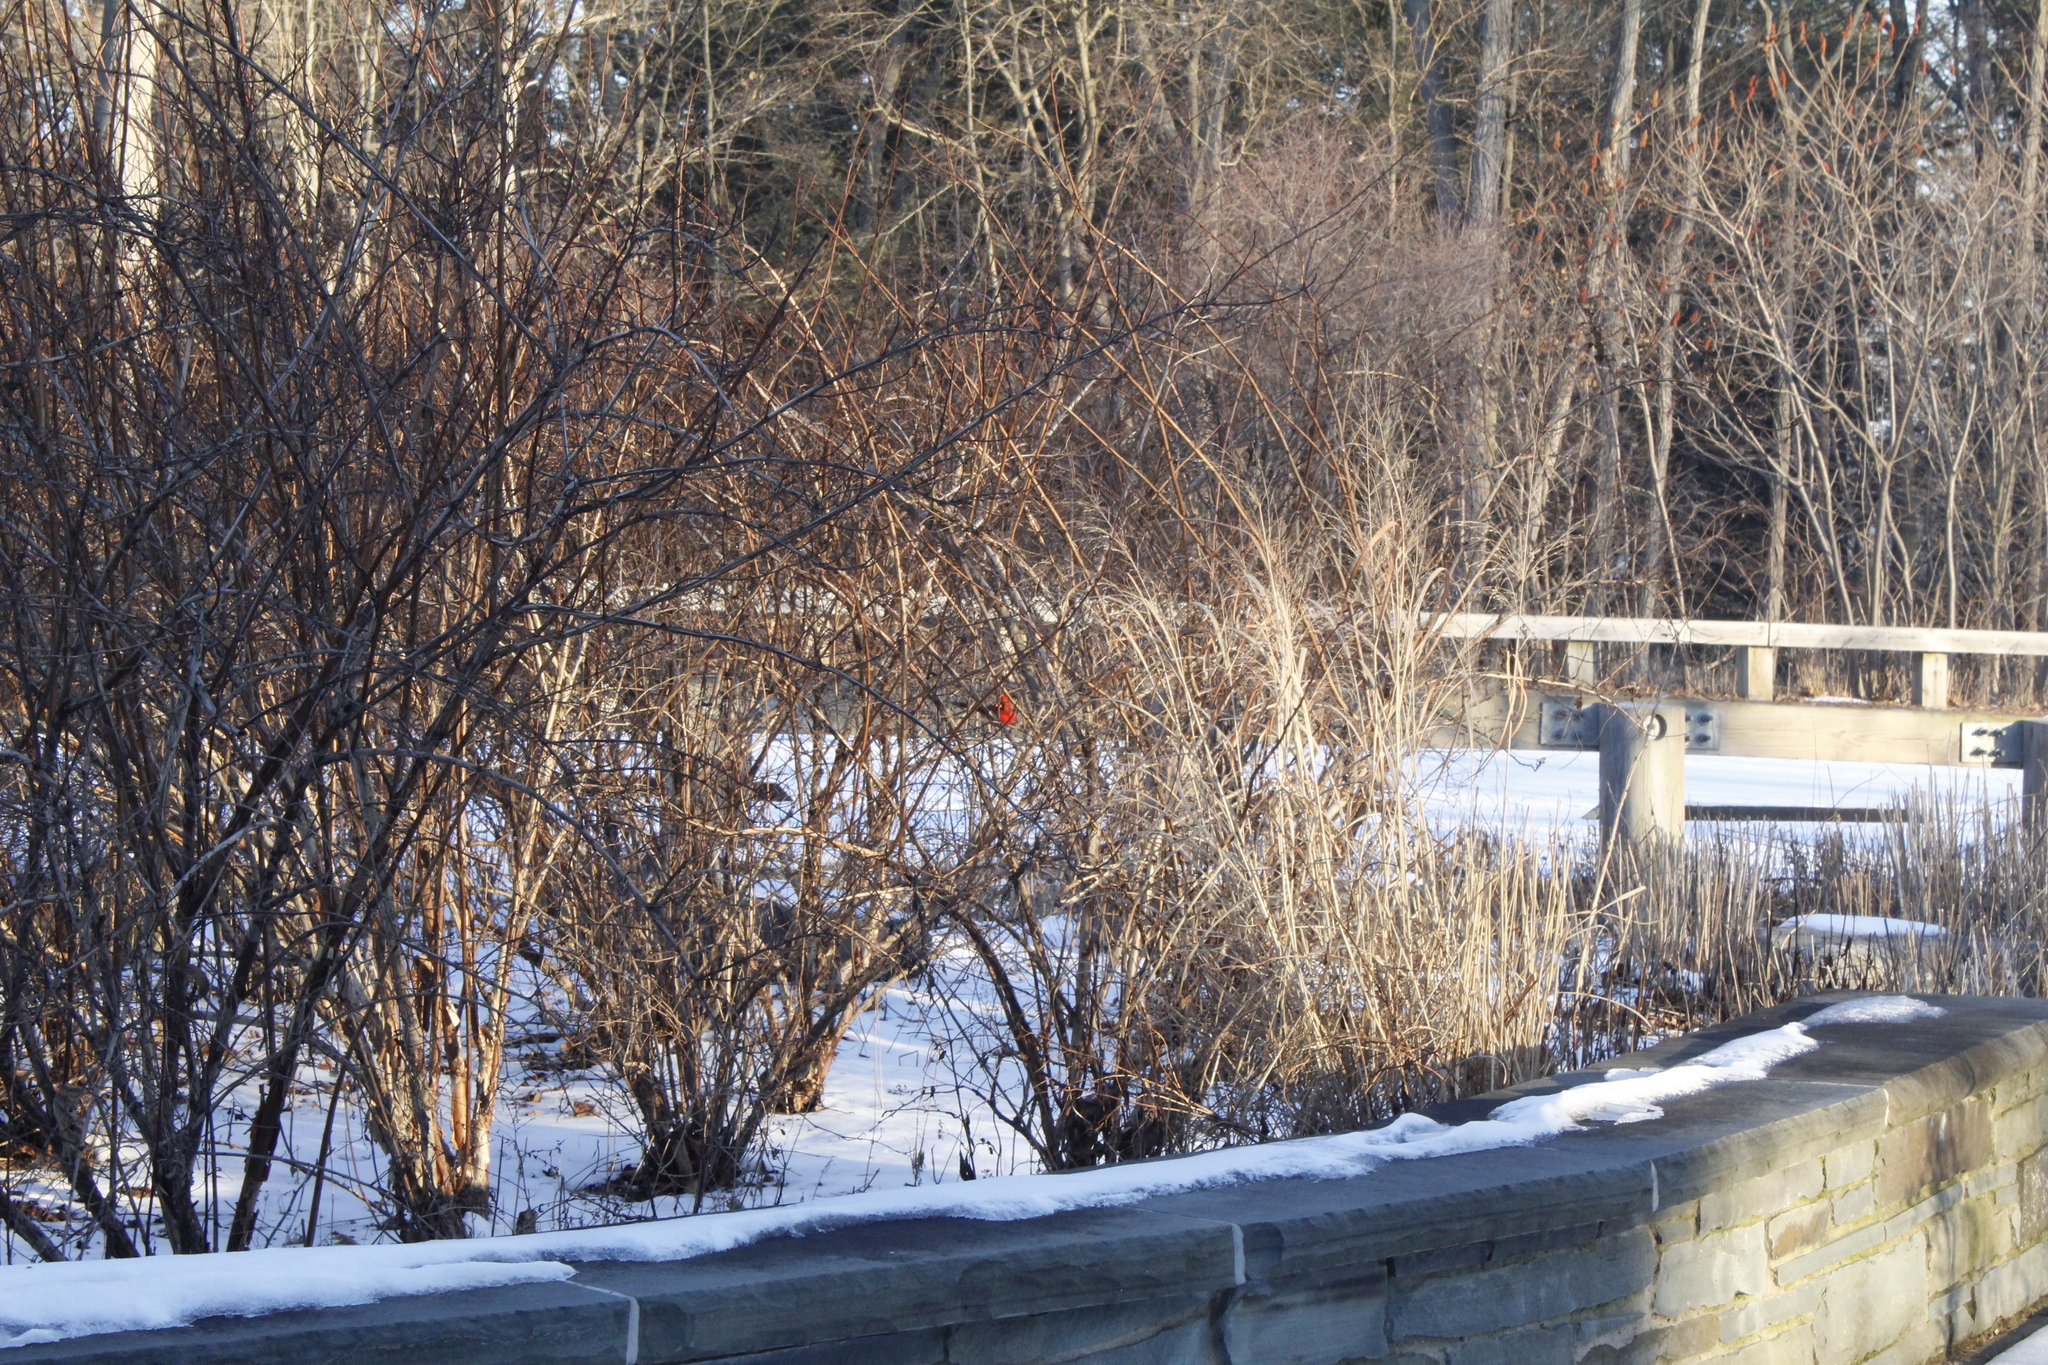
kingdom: Animalia
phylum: Chordata
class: Aves
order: Passeriformes
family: Cardinalidae
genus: Cardinalis
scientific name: Cardinalis cardinalis
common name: Northern cardinal
